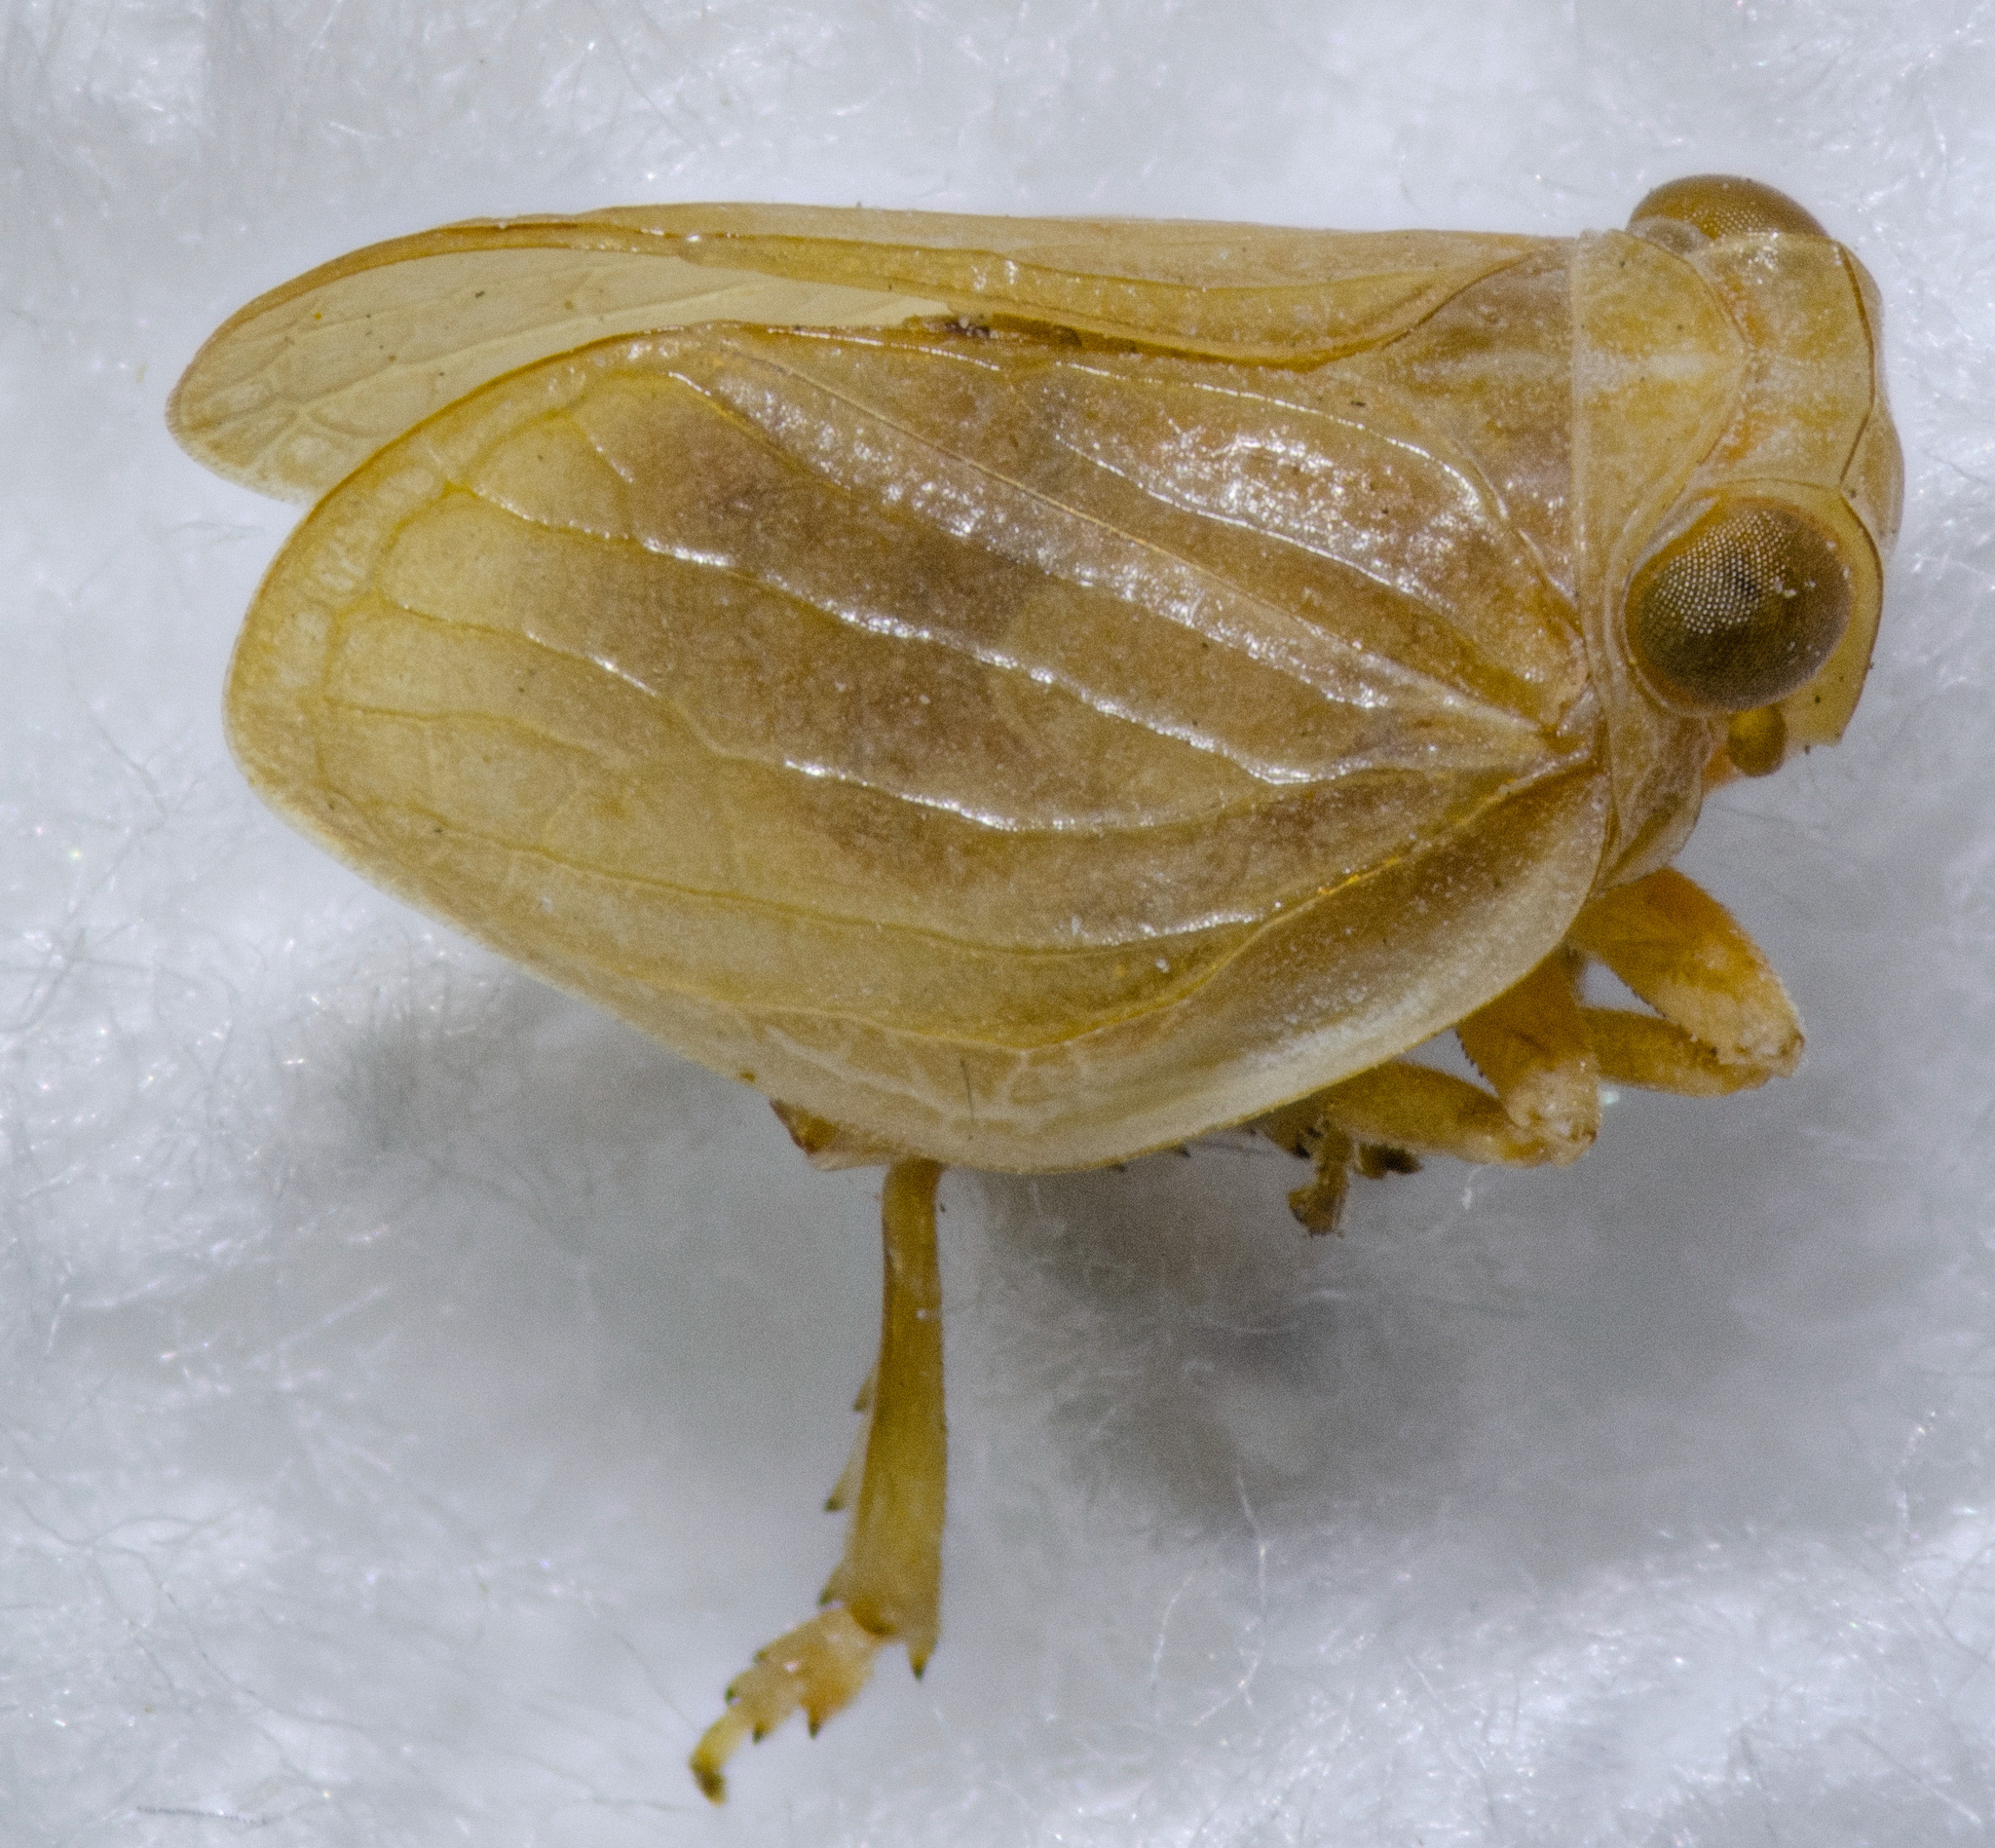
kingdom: Animalia
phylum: Arthropoda
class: Insecta
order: Hemiptera
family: Issidae
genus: Agalmatium
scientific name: Agalmatium bilobum
